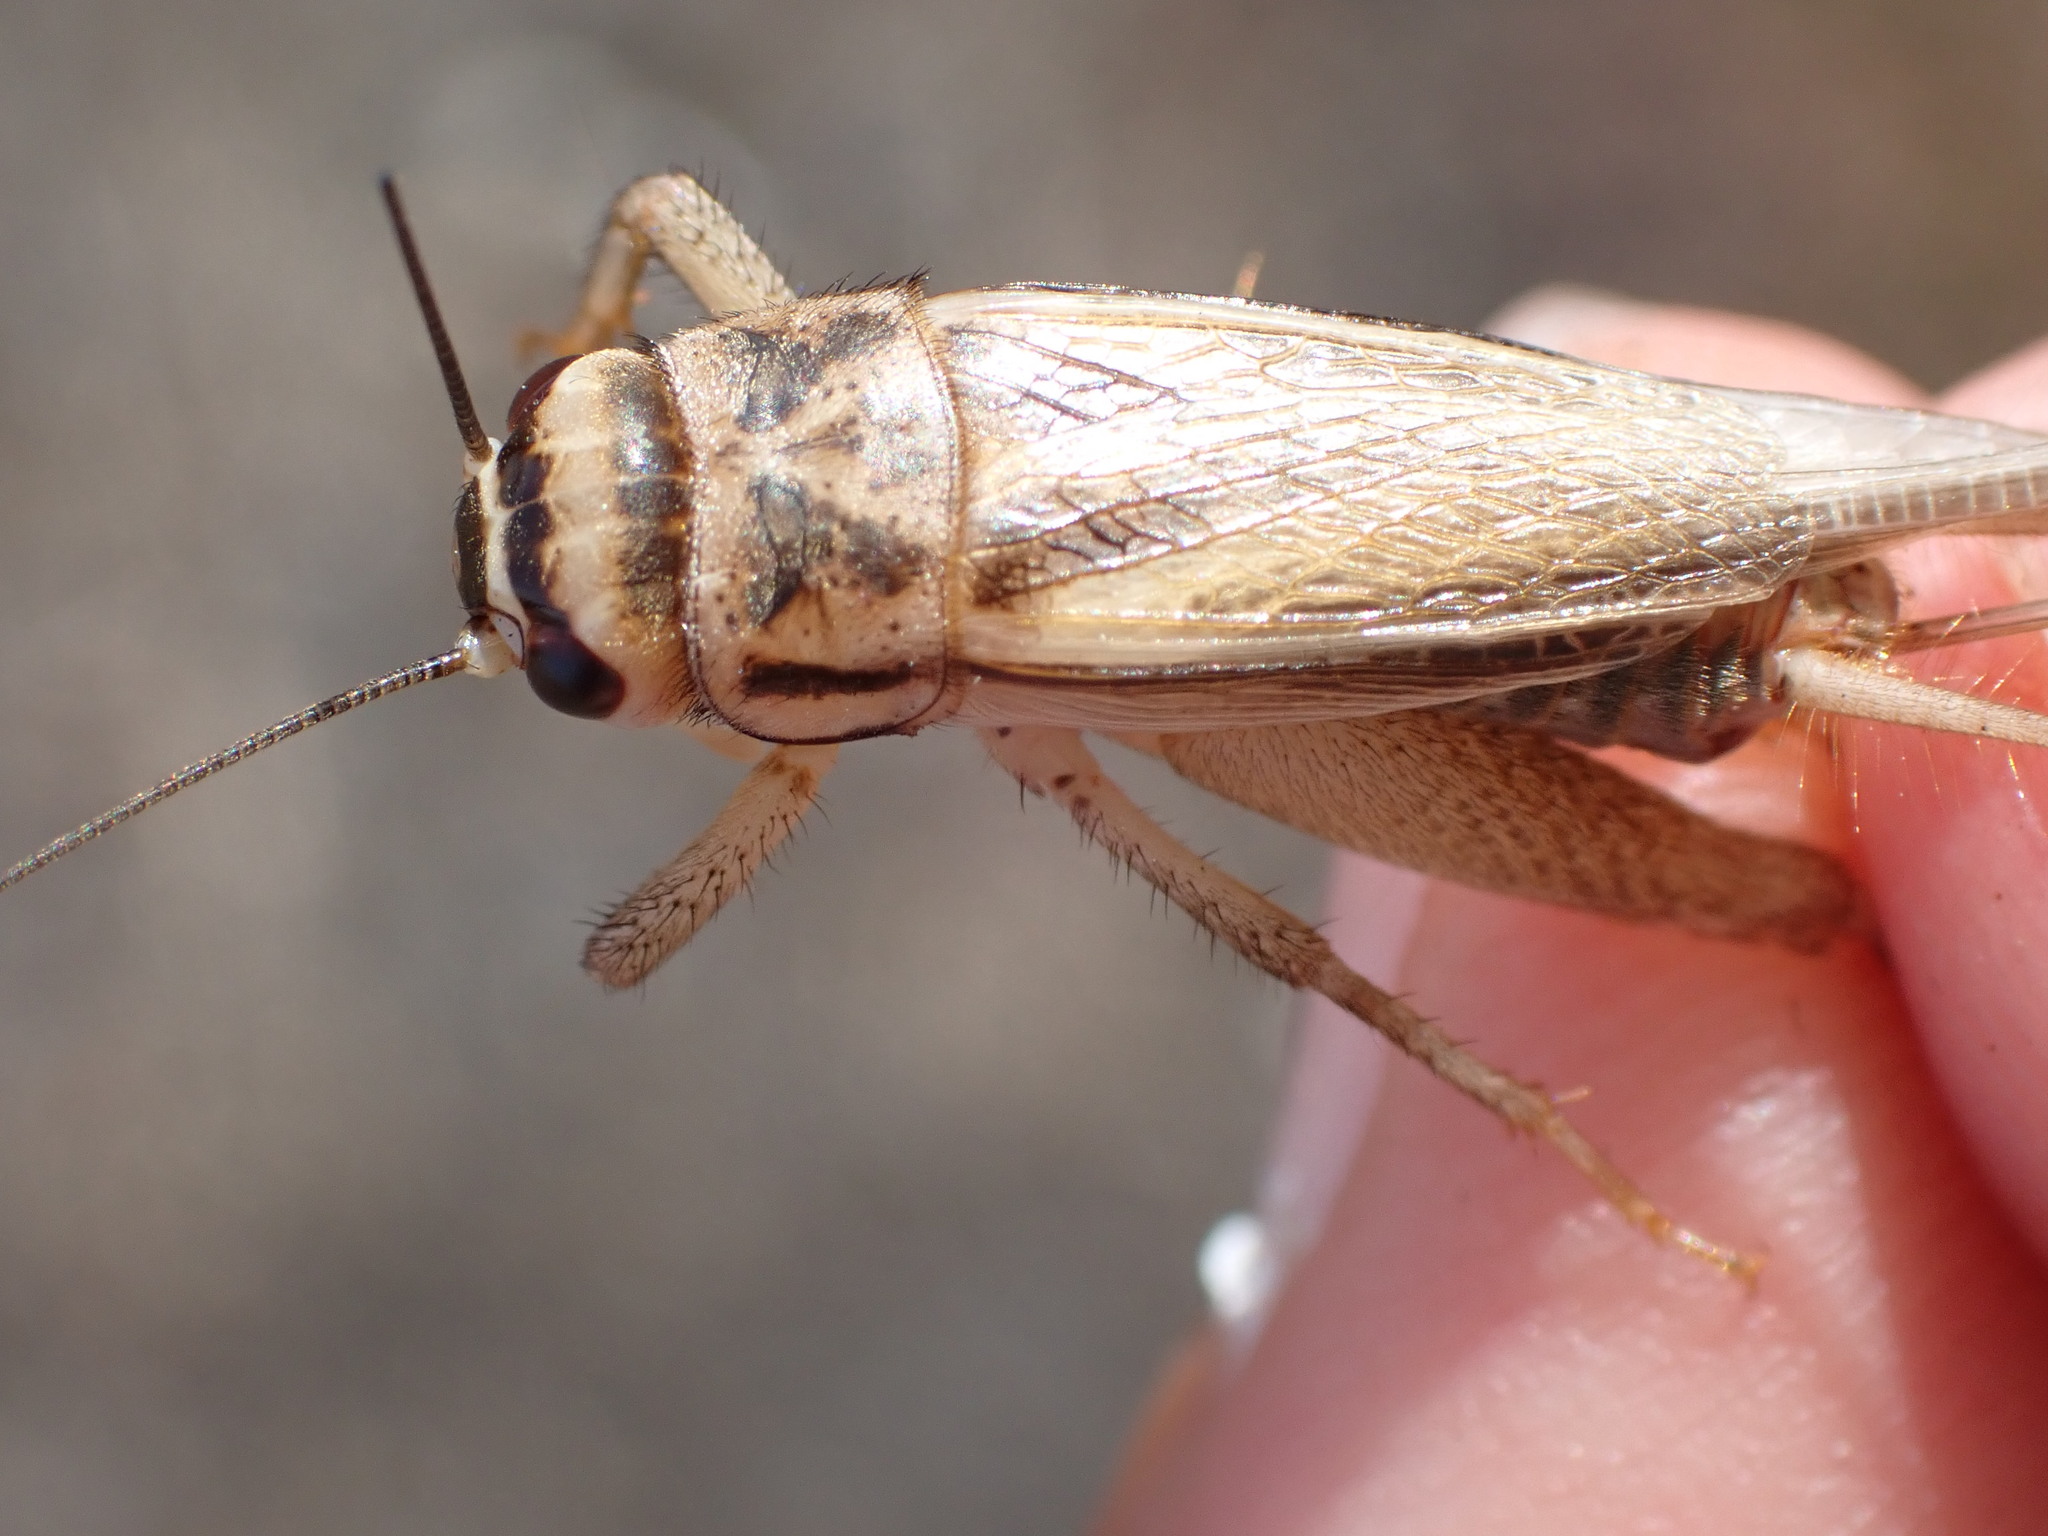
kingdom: Animalia
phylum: Arthropoda
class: Insecta
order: Orthoptera
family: Gryllidae
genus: Acheta
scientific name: Acheta domesticus
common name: House cricket
